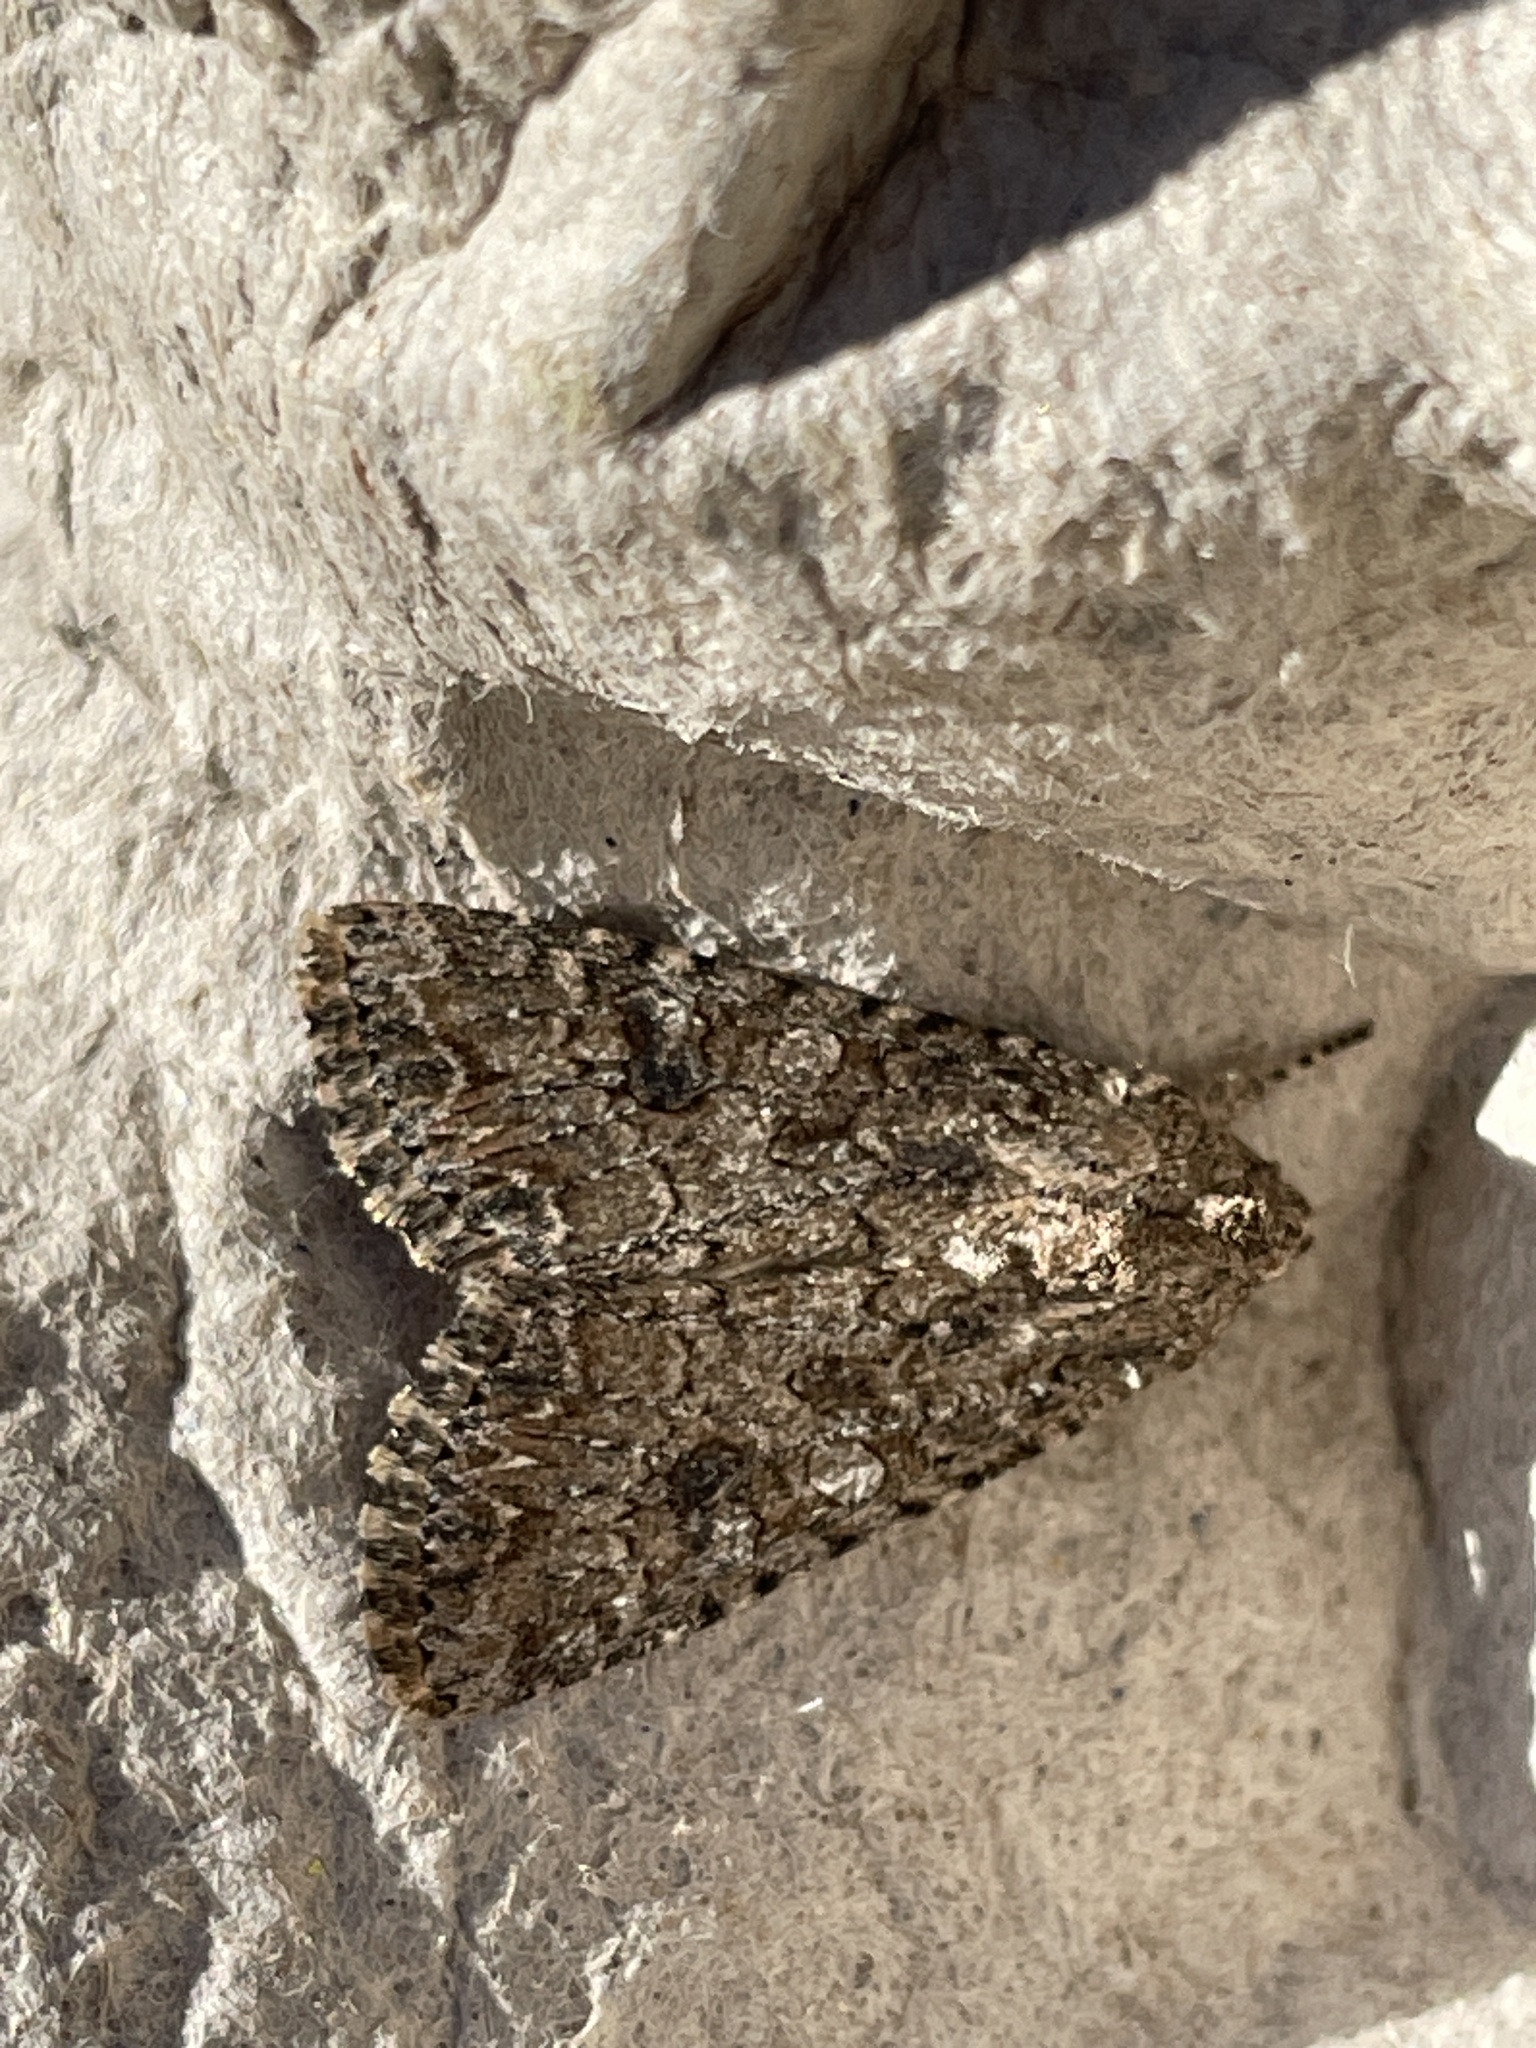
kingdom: Animalia
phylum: Arthropoda
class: Insecta
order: Lepidoptera
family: Noctuidae
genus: Anarta
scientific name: Anarta trifolii
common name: Clover cutworm moth
